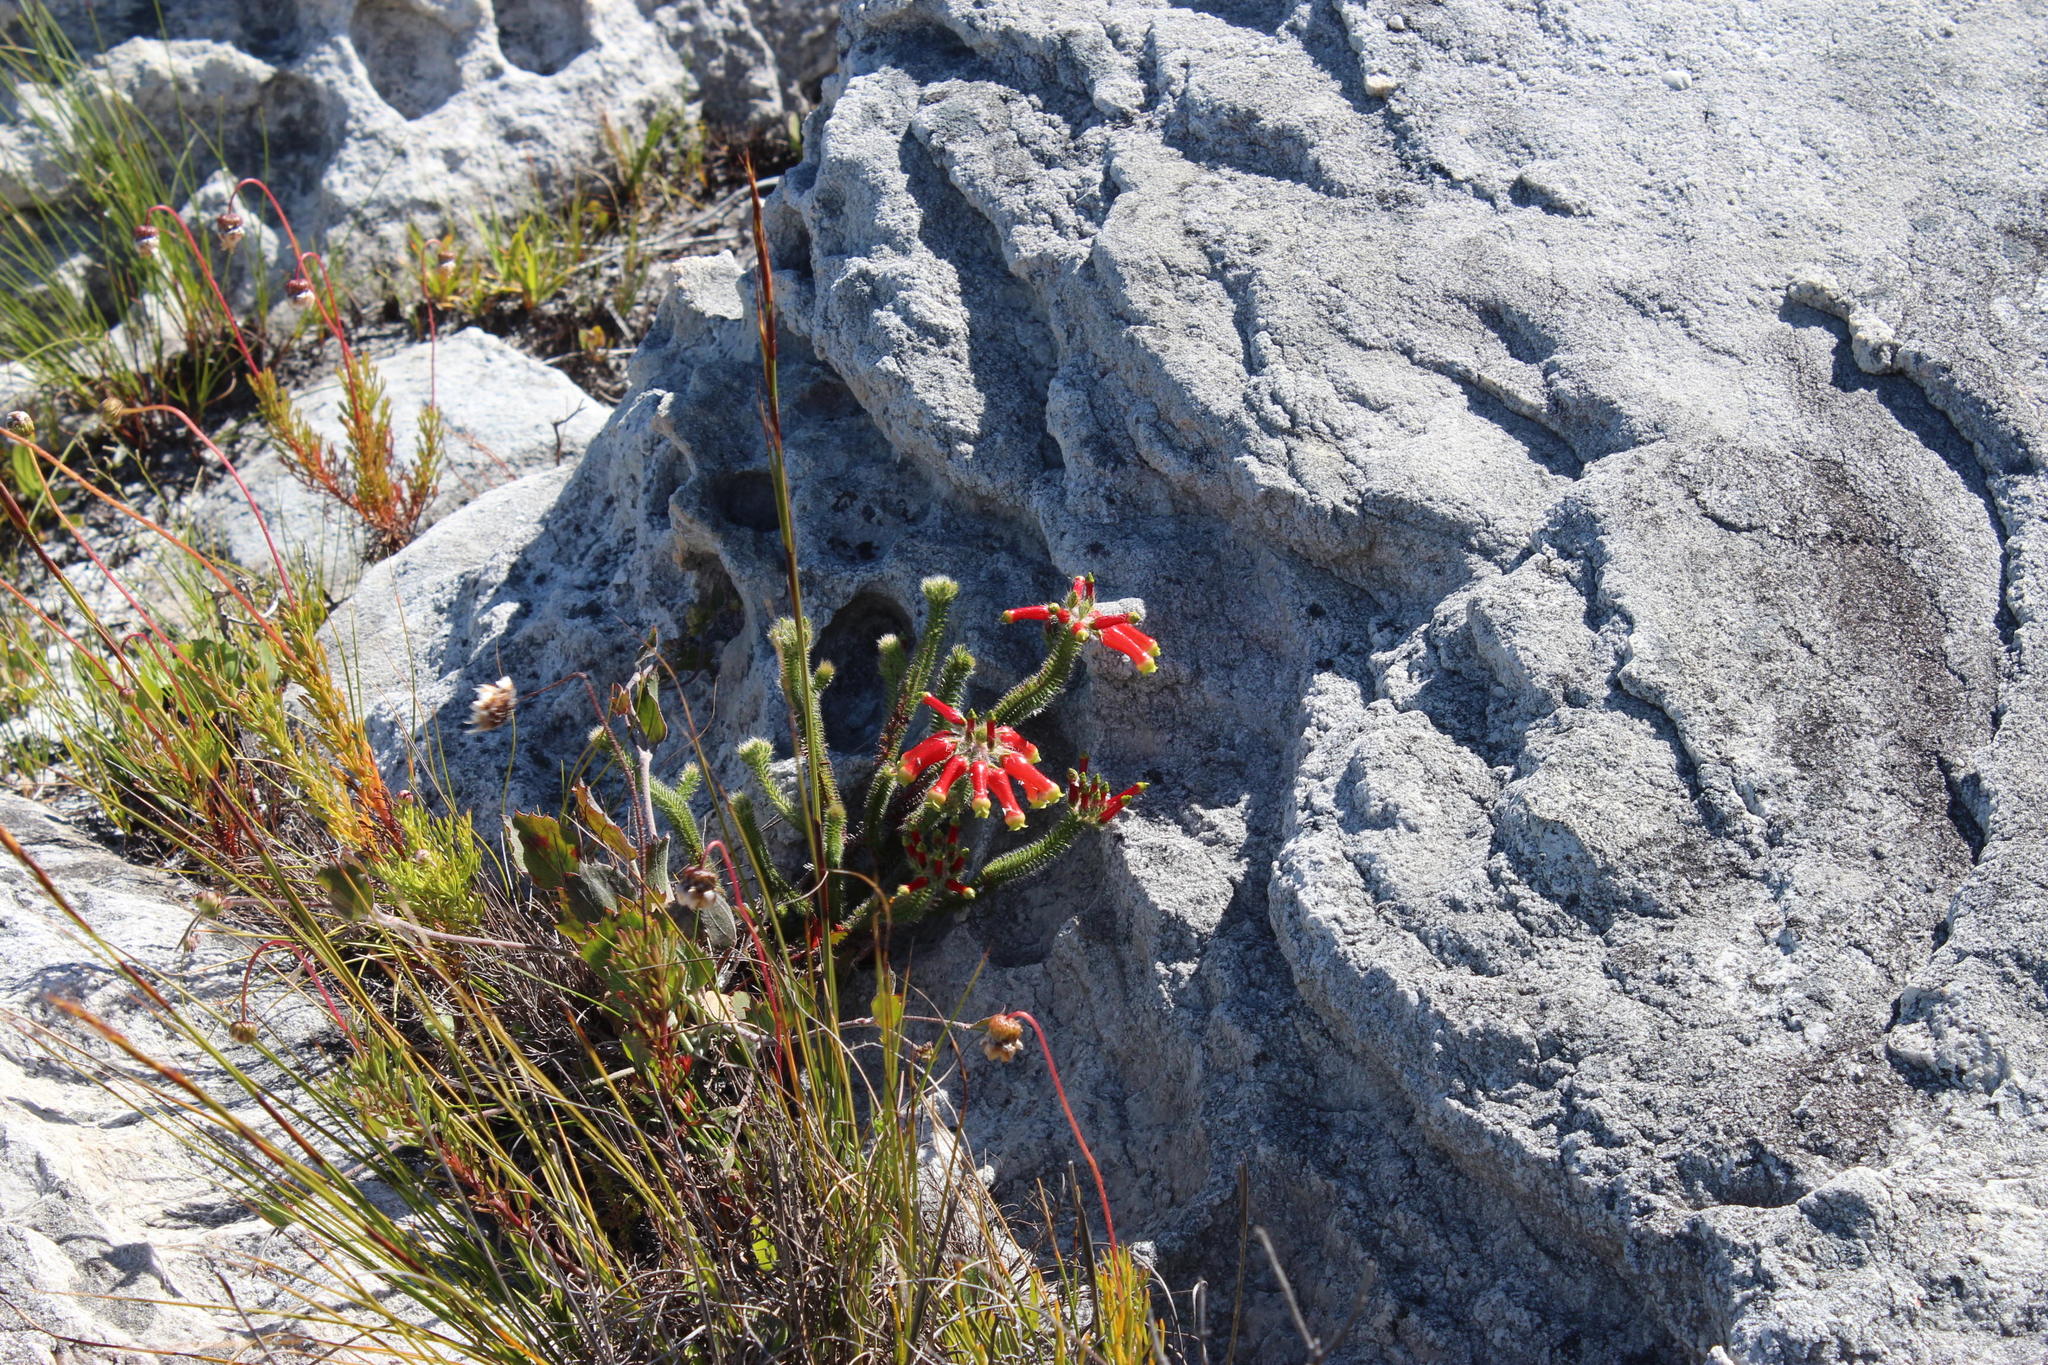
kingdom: Plantae
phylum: Tracheophyta
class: Magnoliopsida
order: Ericales
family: Ericaceae
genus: Erica
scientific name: Erica massonii
